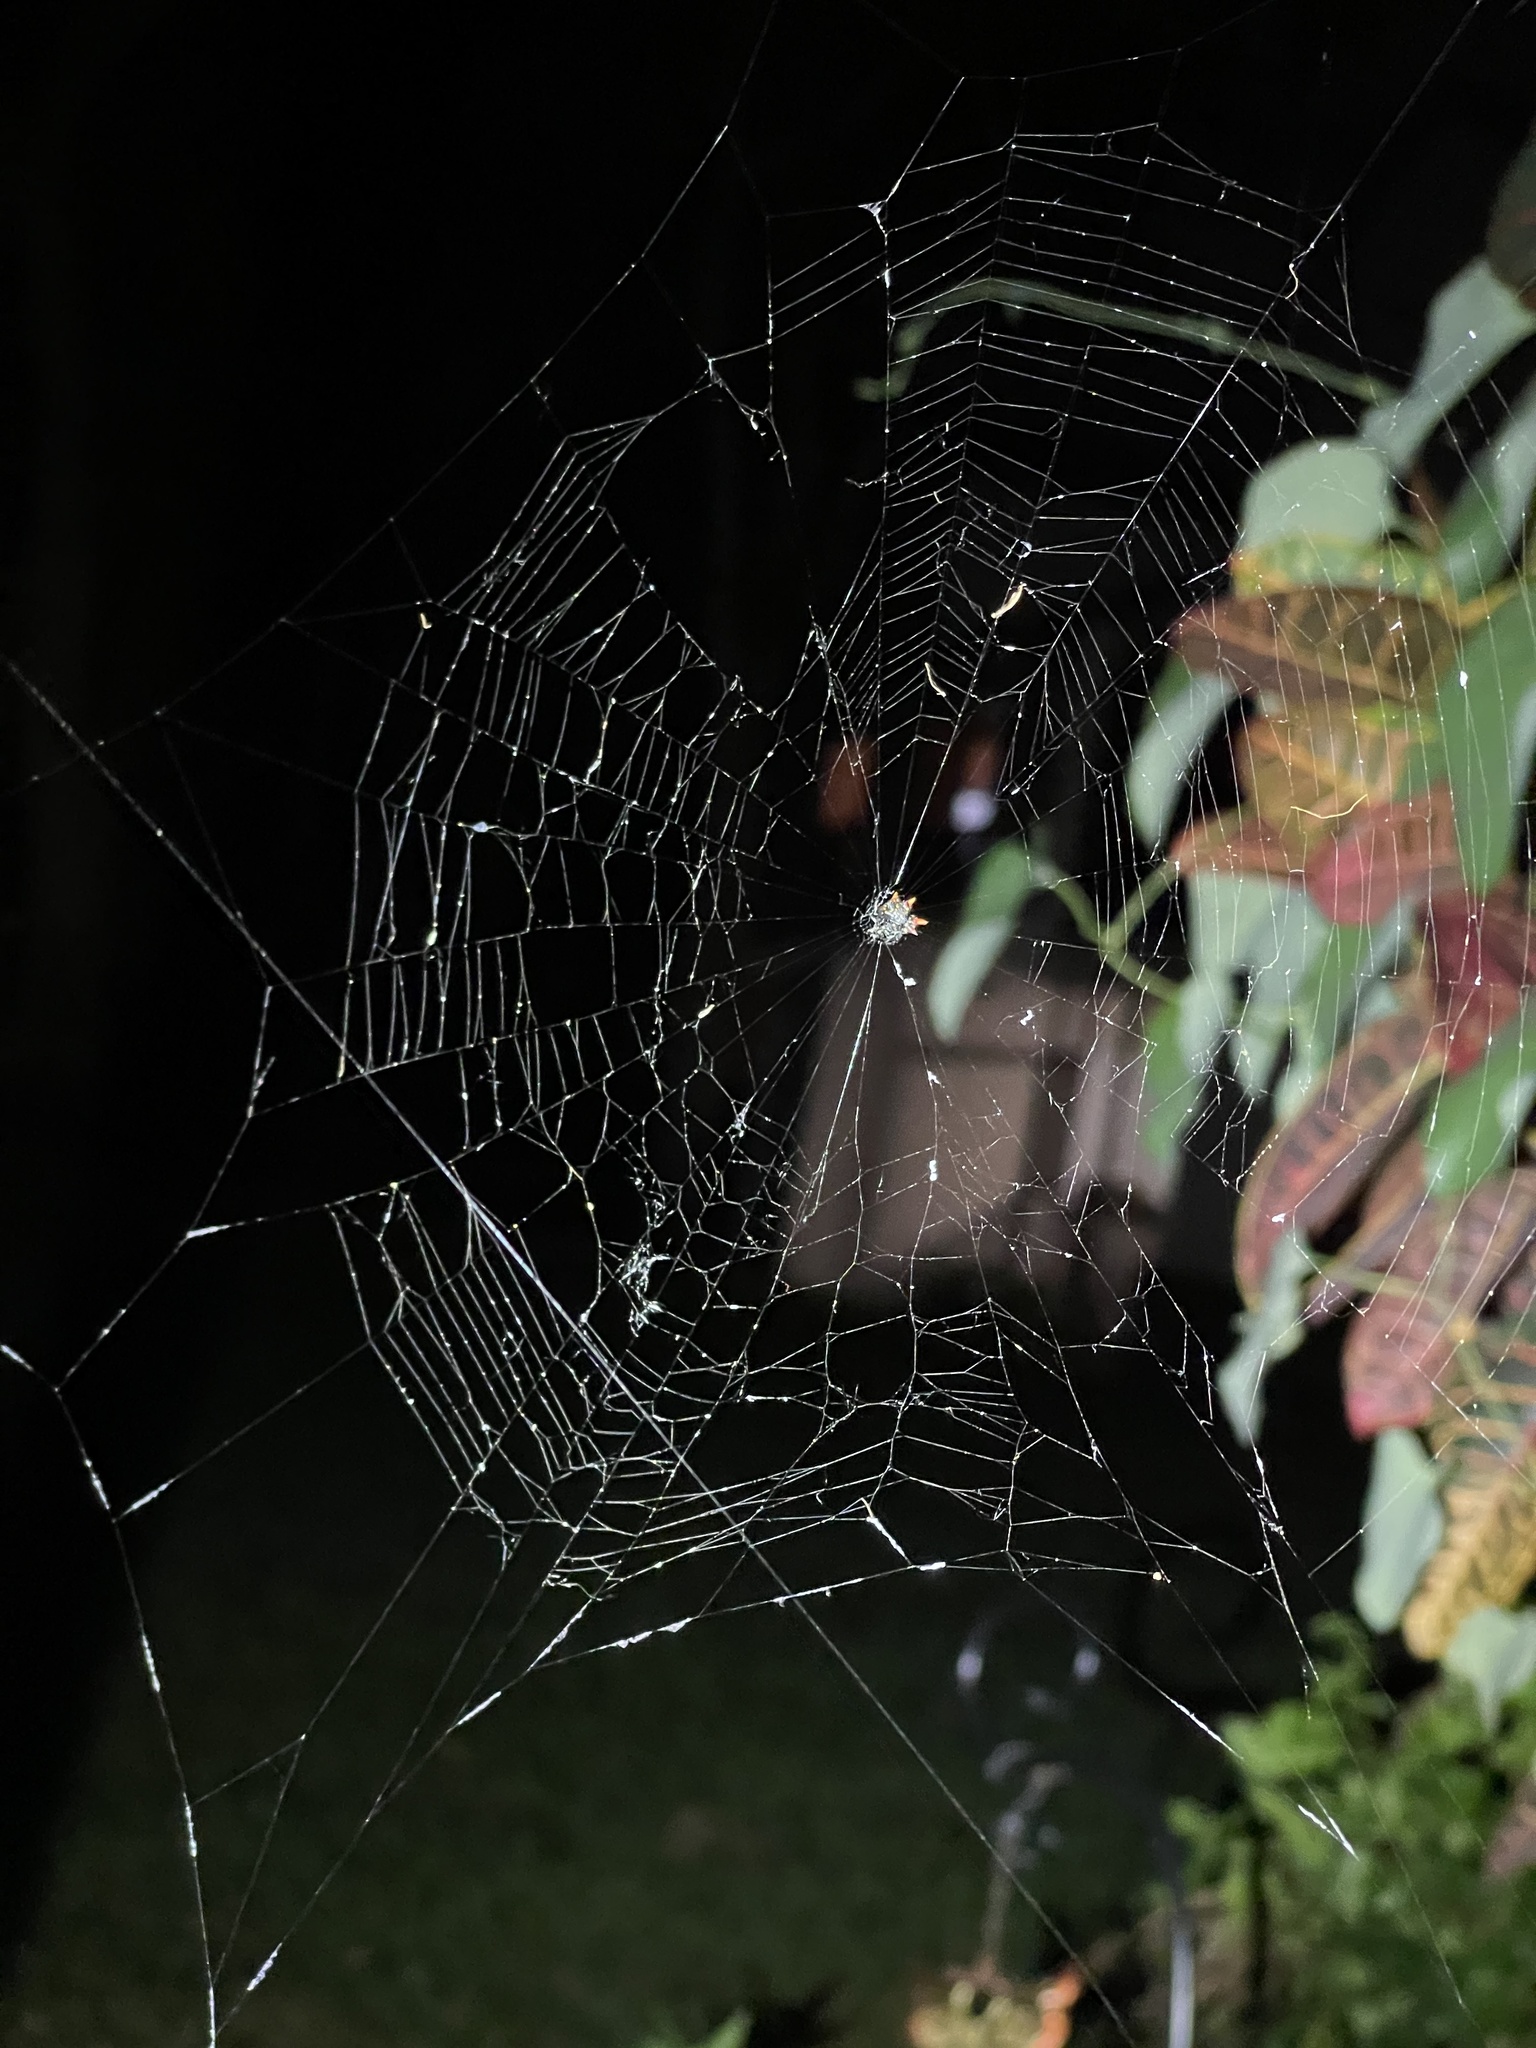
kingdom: Animalia
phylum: Arthropoda
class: Arachnida
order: Araneae
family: Araneidae
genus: Gasteracantha
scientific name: Gasteracantha cancriformis
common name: Orb weavers
